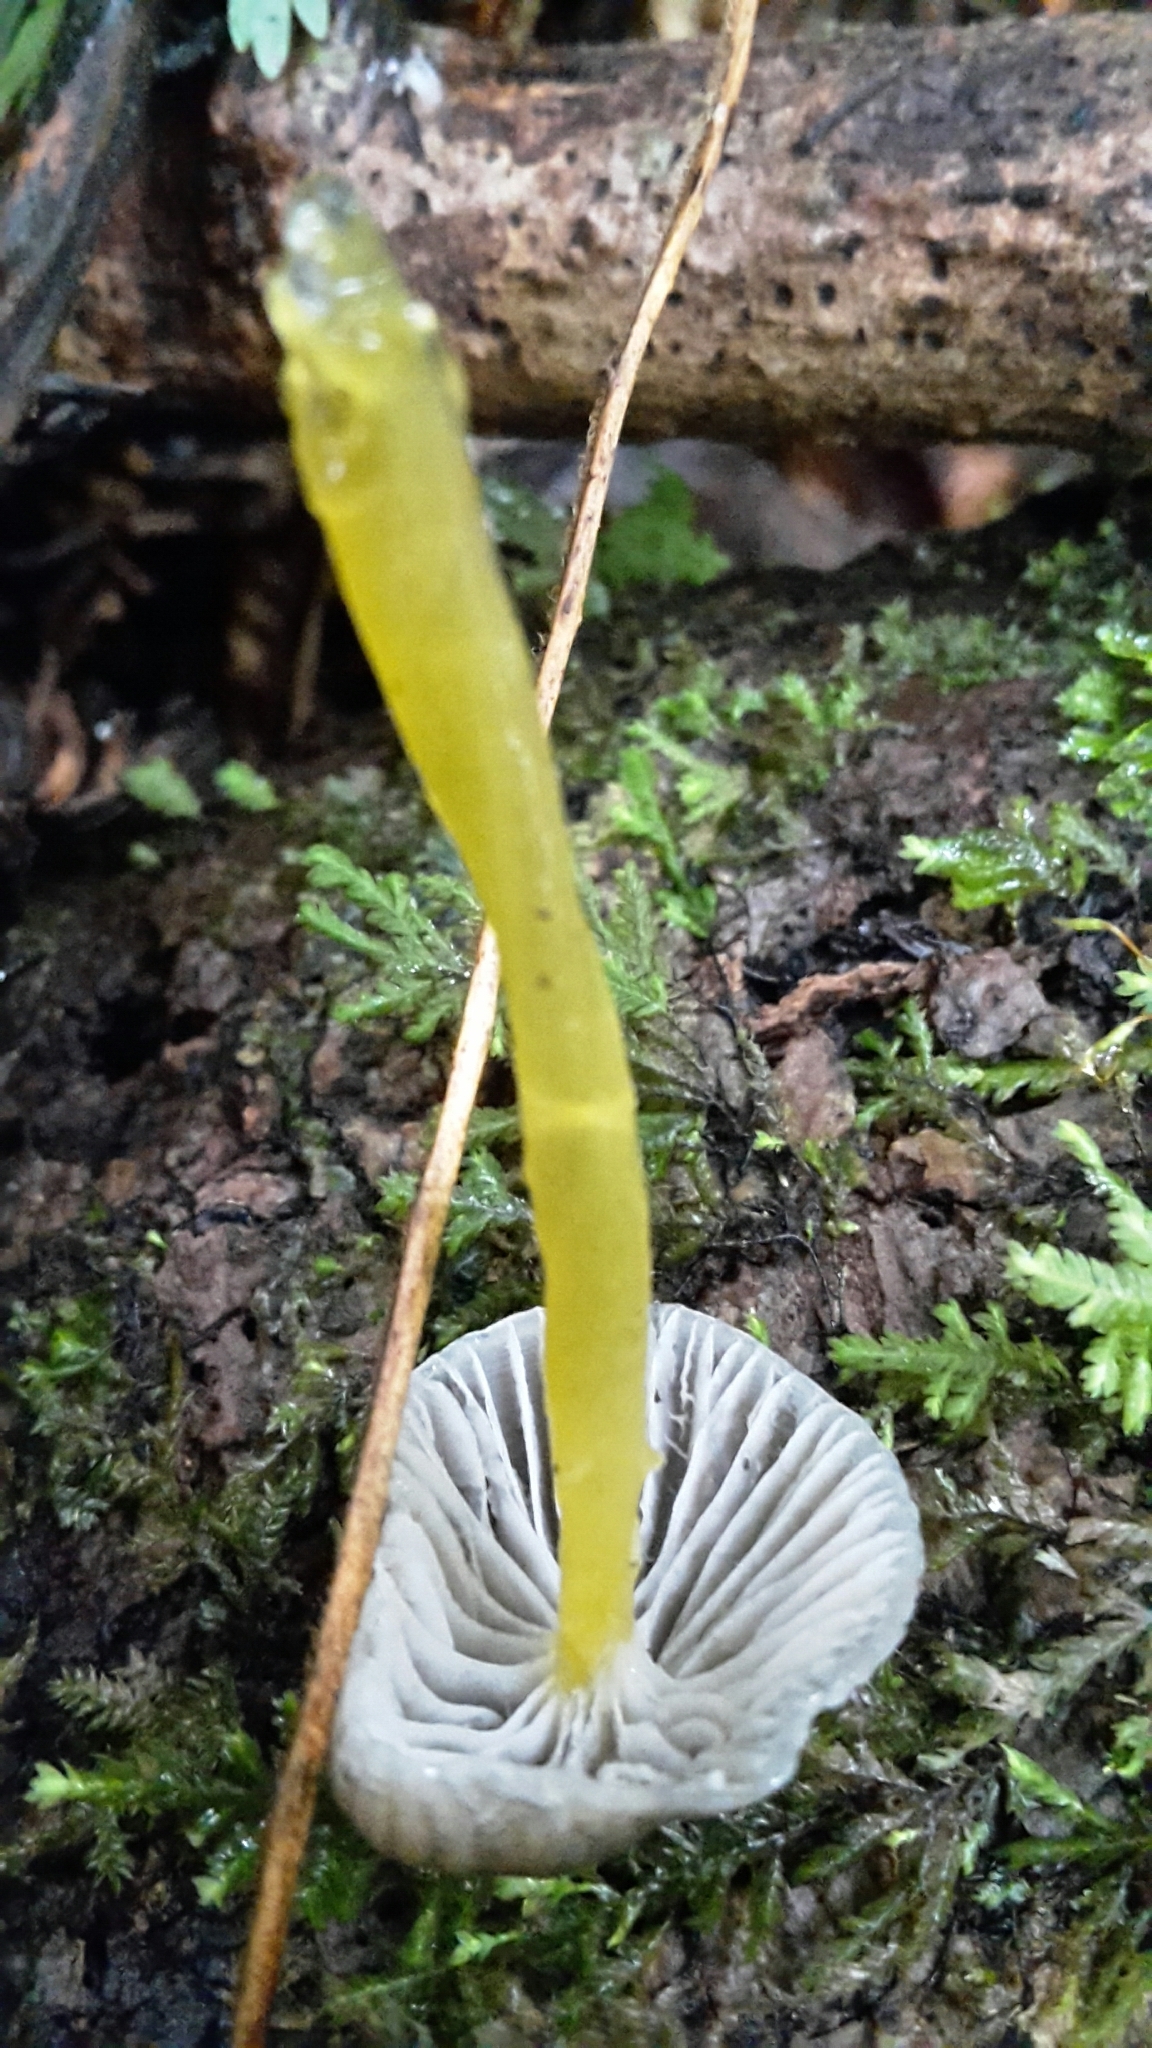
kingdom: Fungi
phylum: Basidiomycota
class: Agaricomycetes
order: Agaricales
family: Mycenaceae
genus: Mycena
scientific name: Mycena subviscosa
